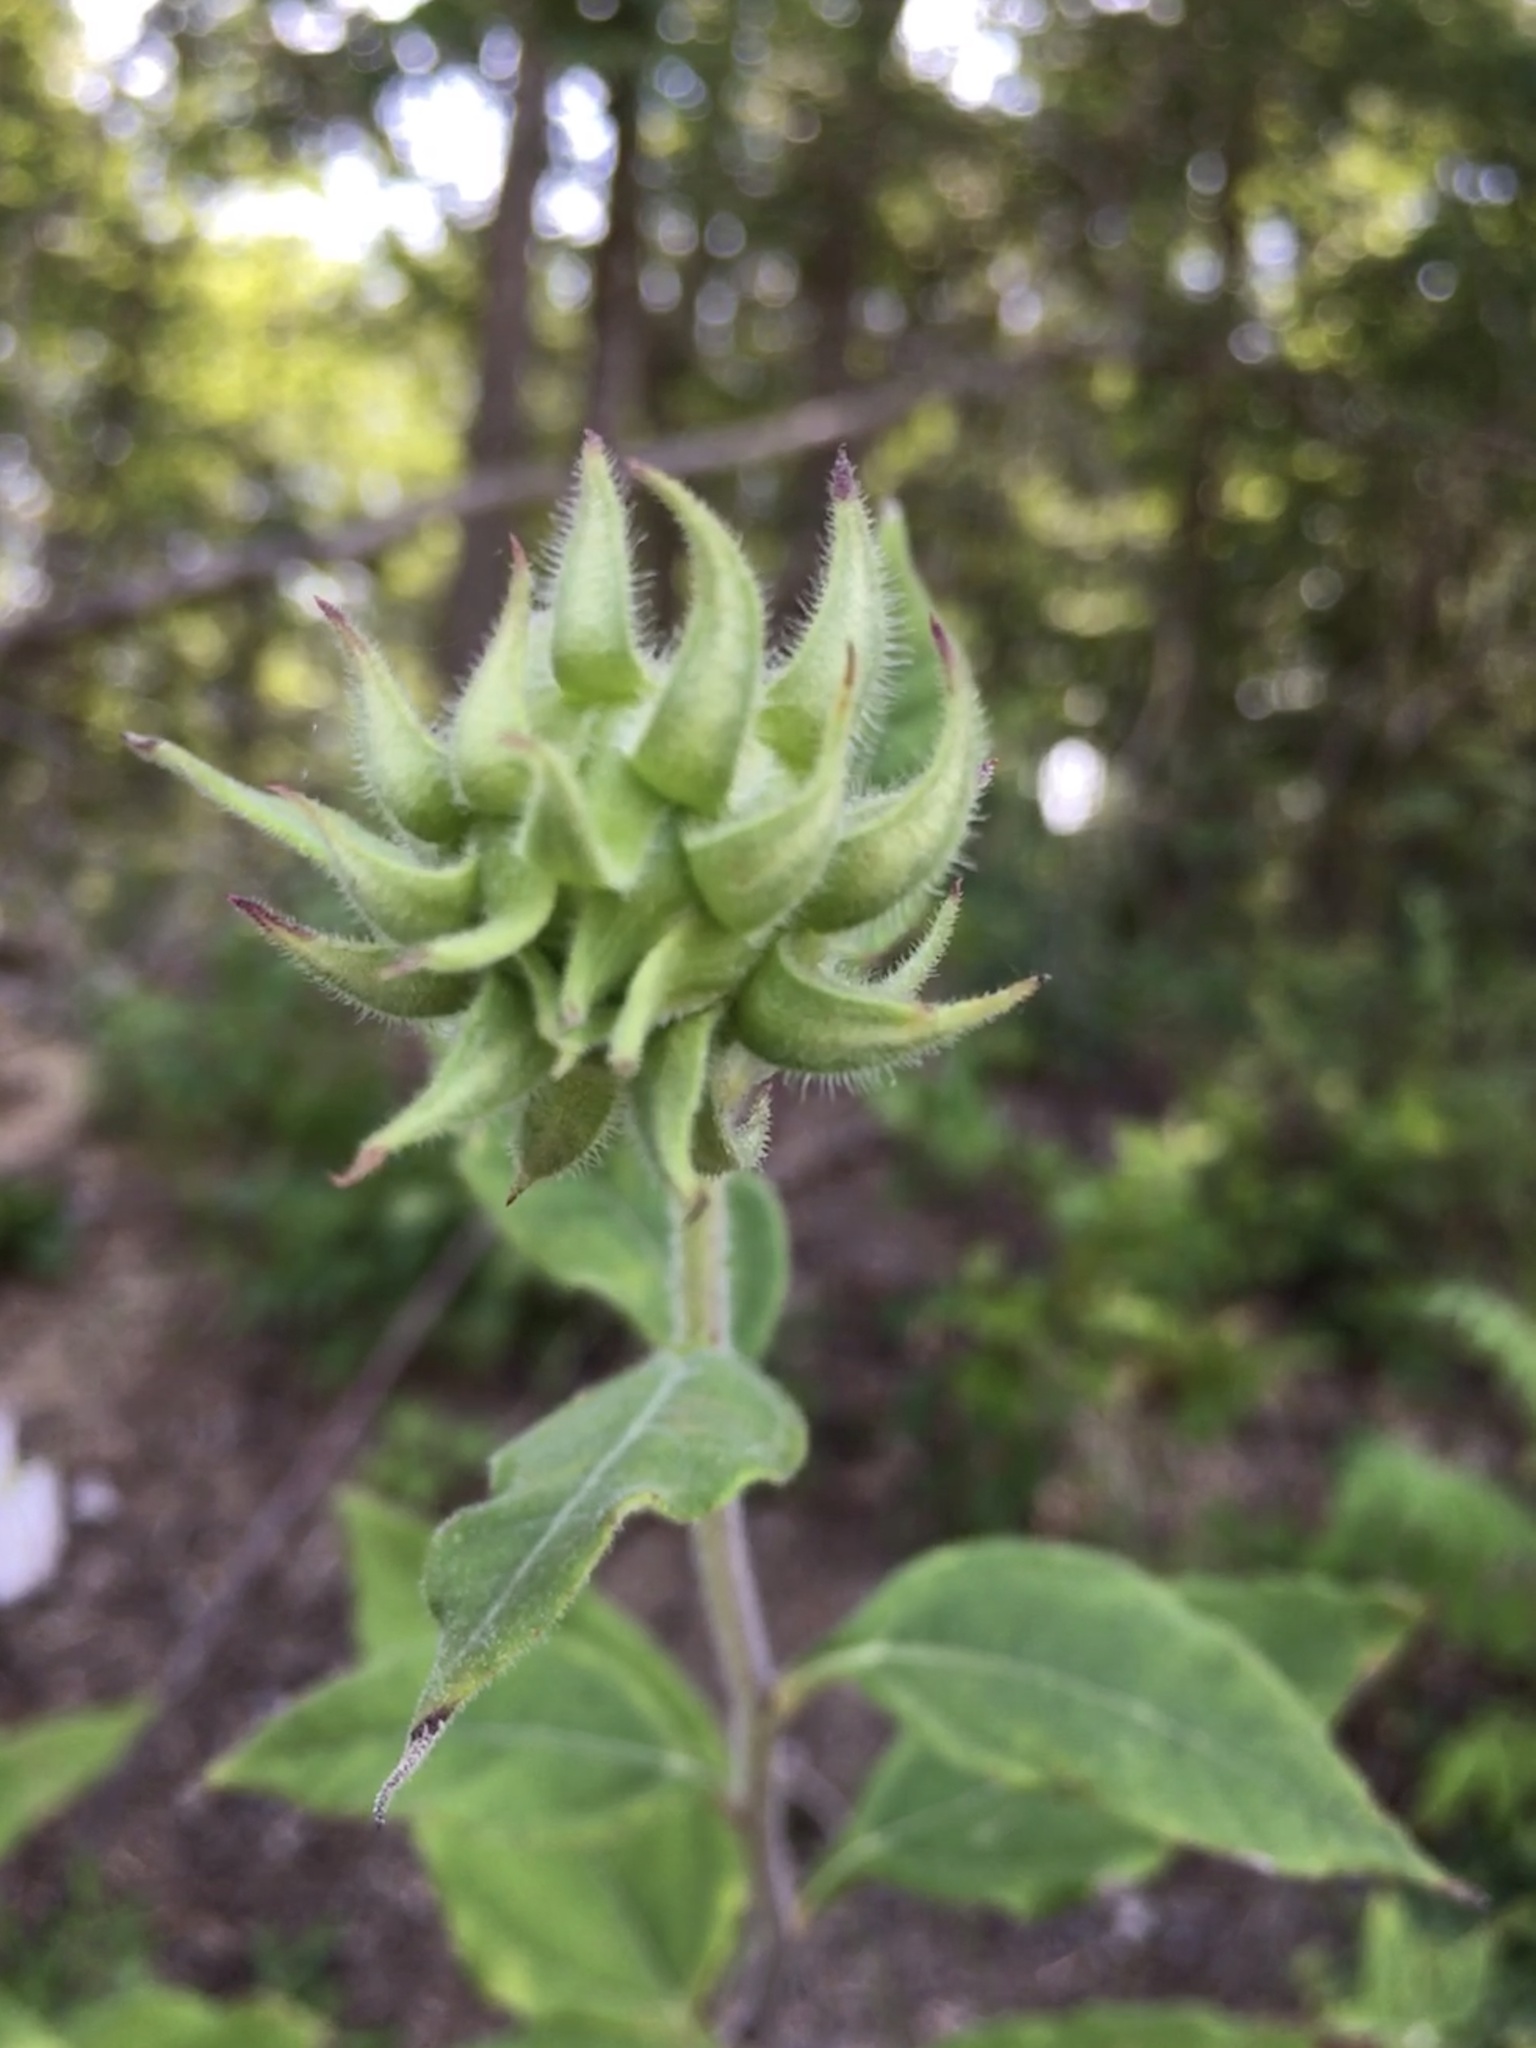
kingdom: Plantae
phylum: Tracheophyta
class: Magnoliopsida
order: Asterales
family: Asteraceae
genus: Helianthus
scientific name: Helianthus resinosus
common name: Resin-dot sunflower
